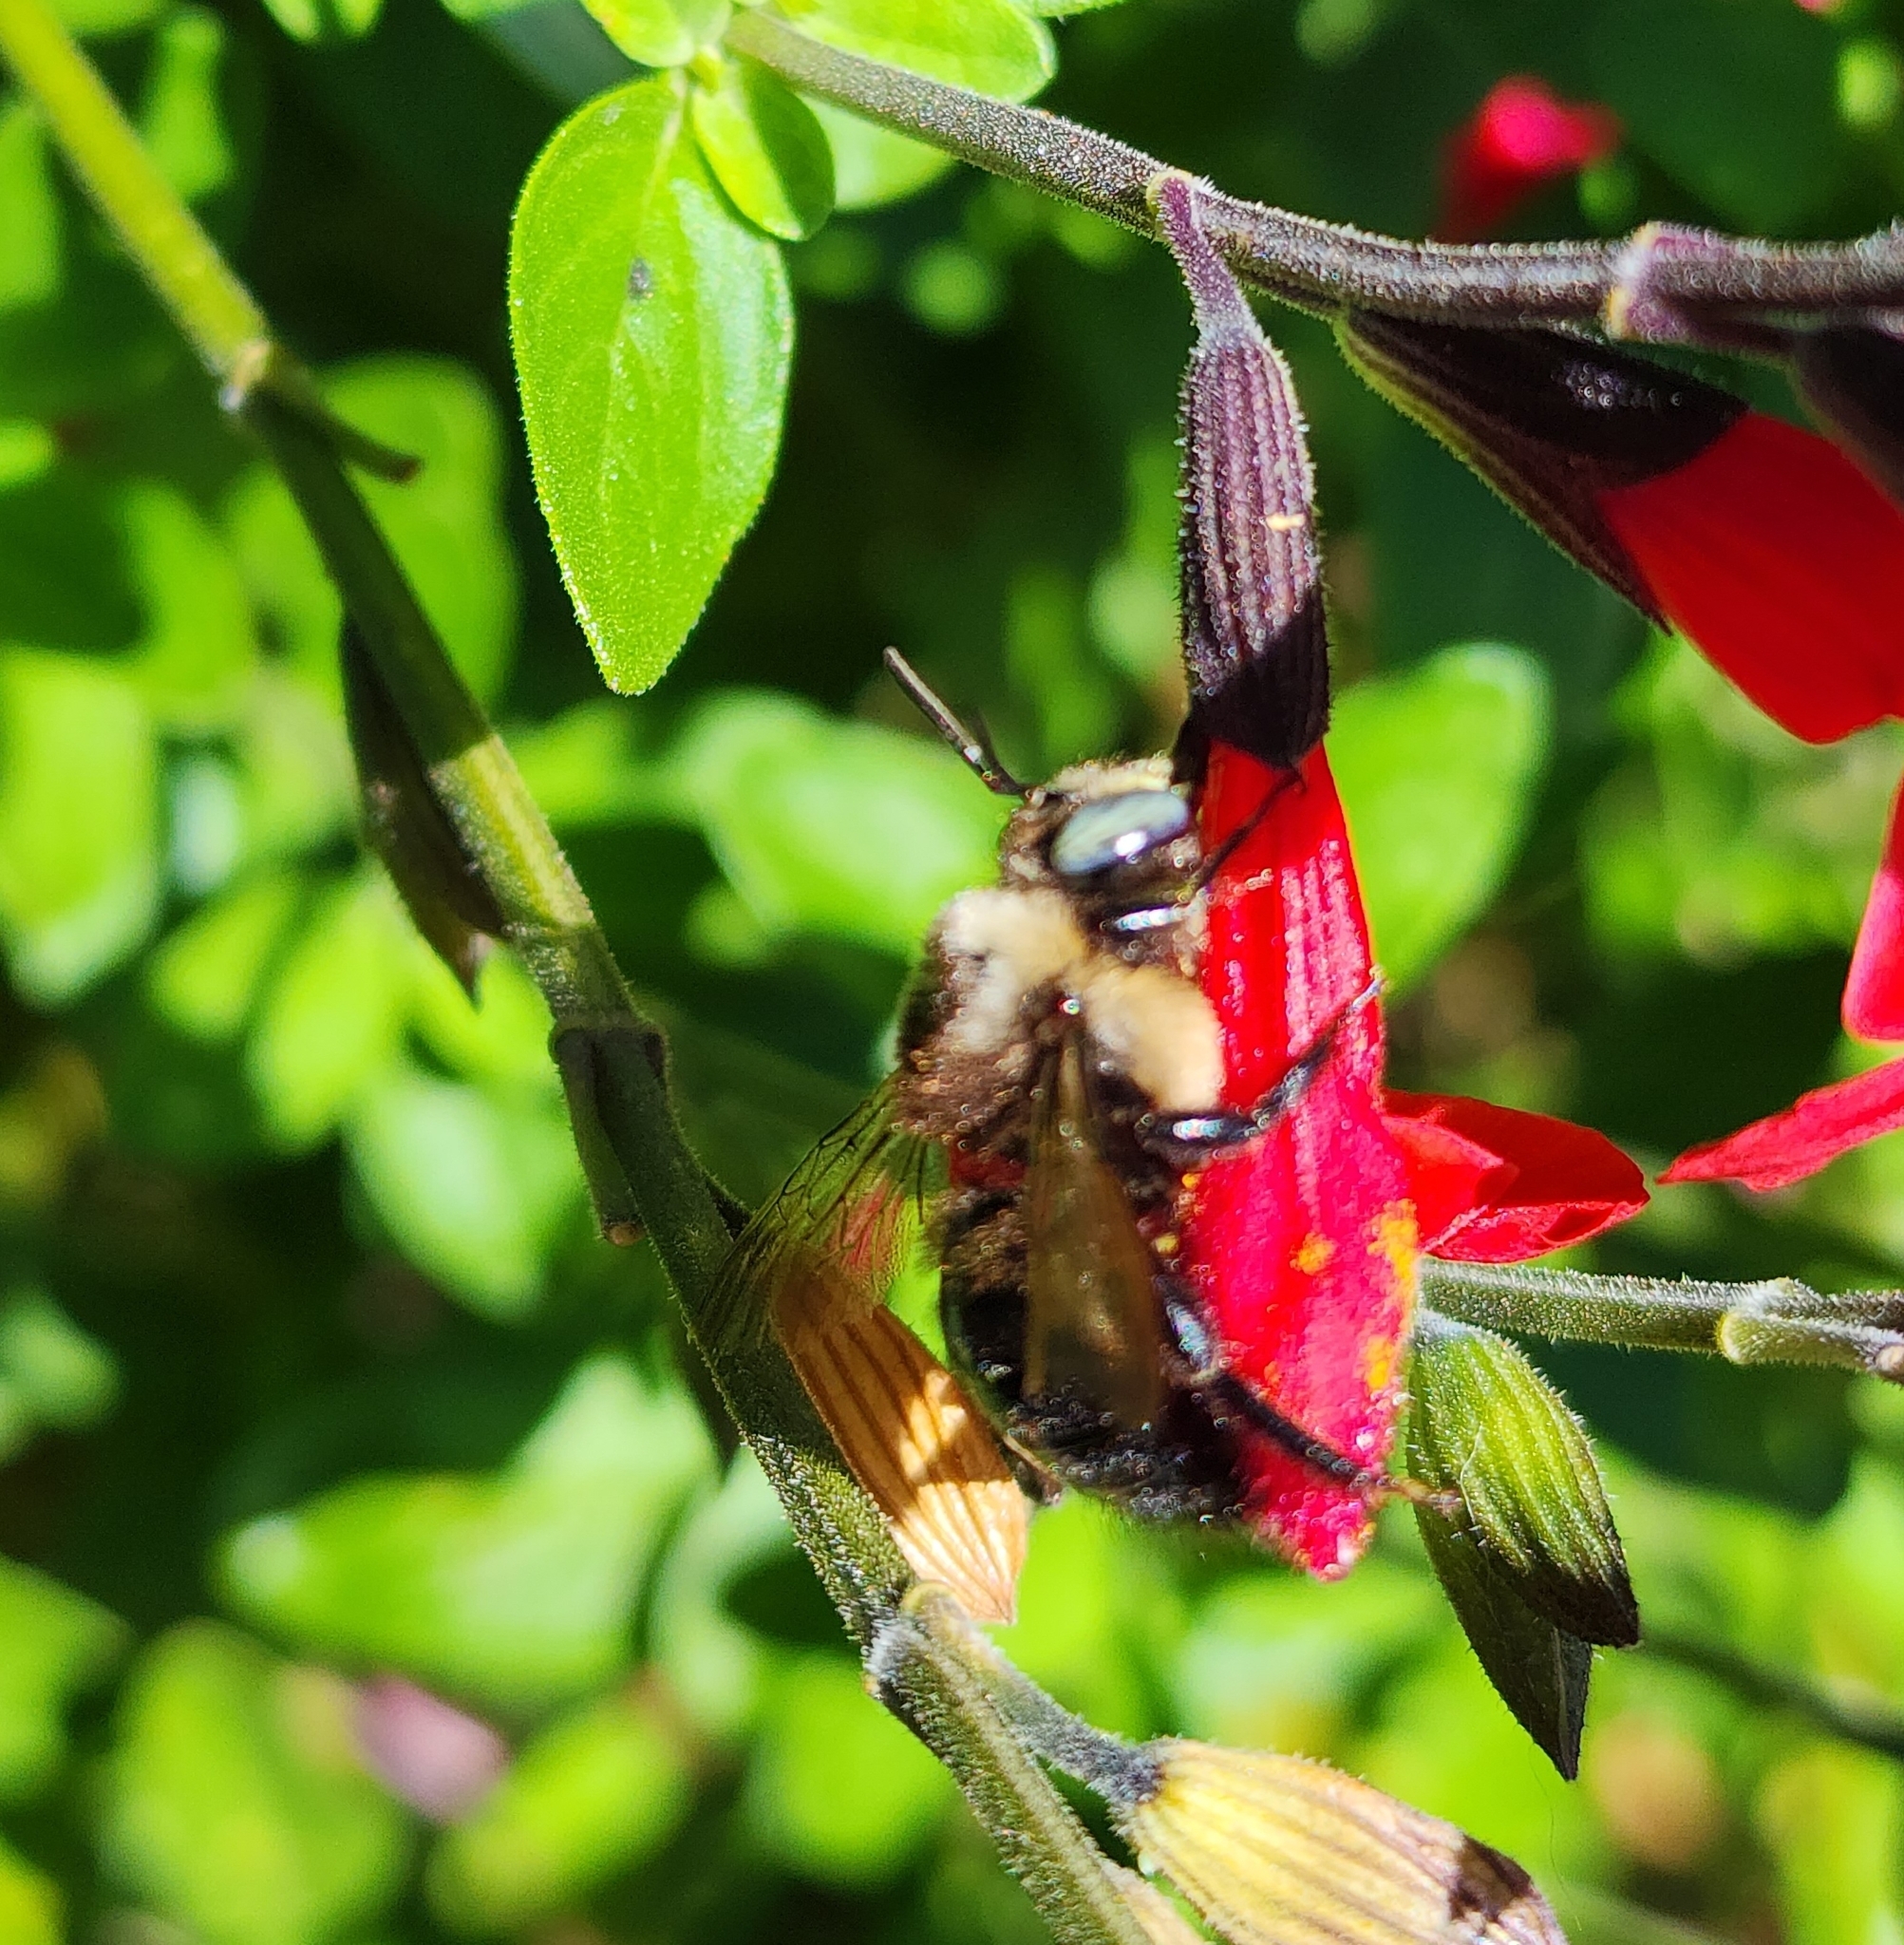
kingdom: Animalia
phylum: Arthropoda
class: Insecta
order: Hymenoptera
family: Apidae
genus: Xylocopa
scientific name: Xylocopa tabaniformis
